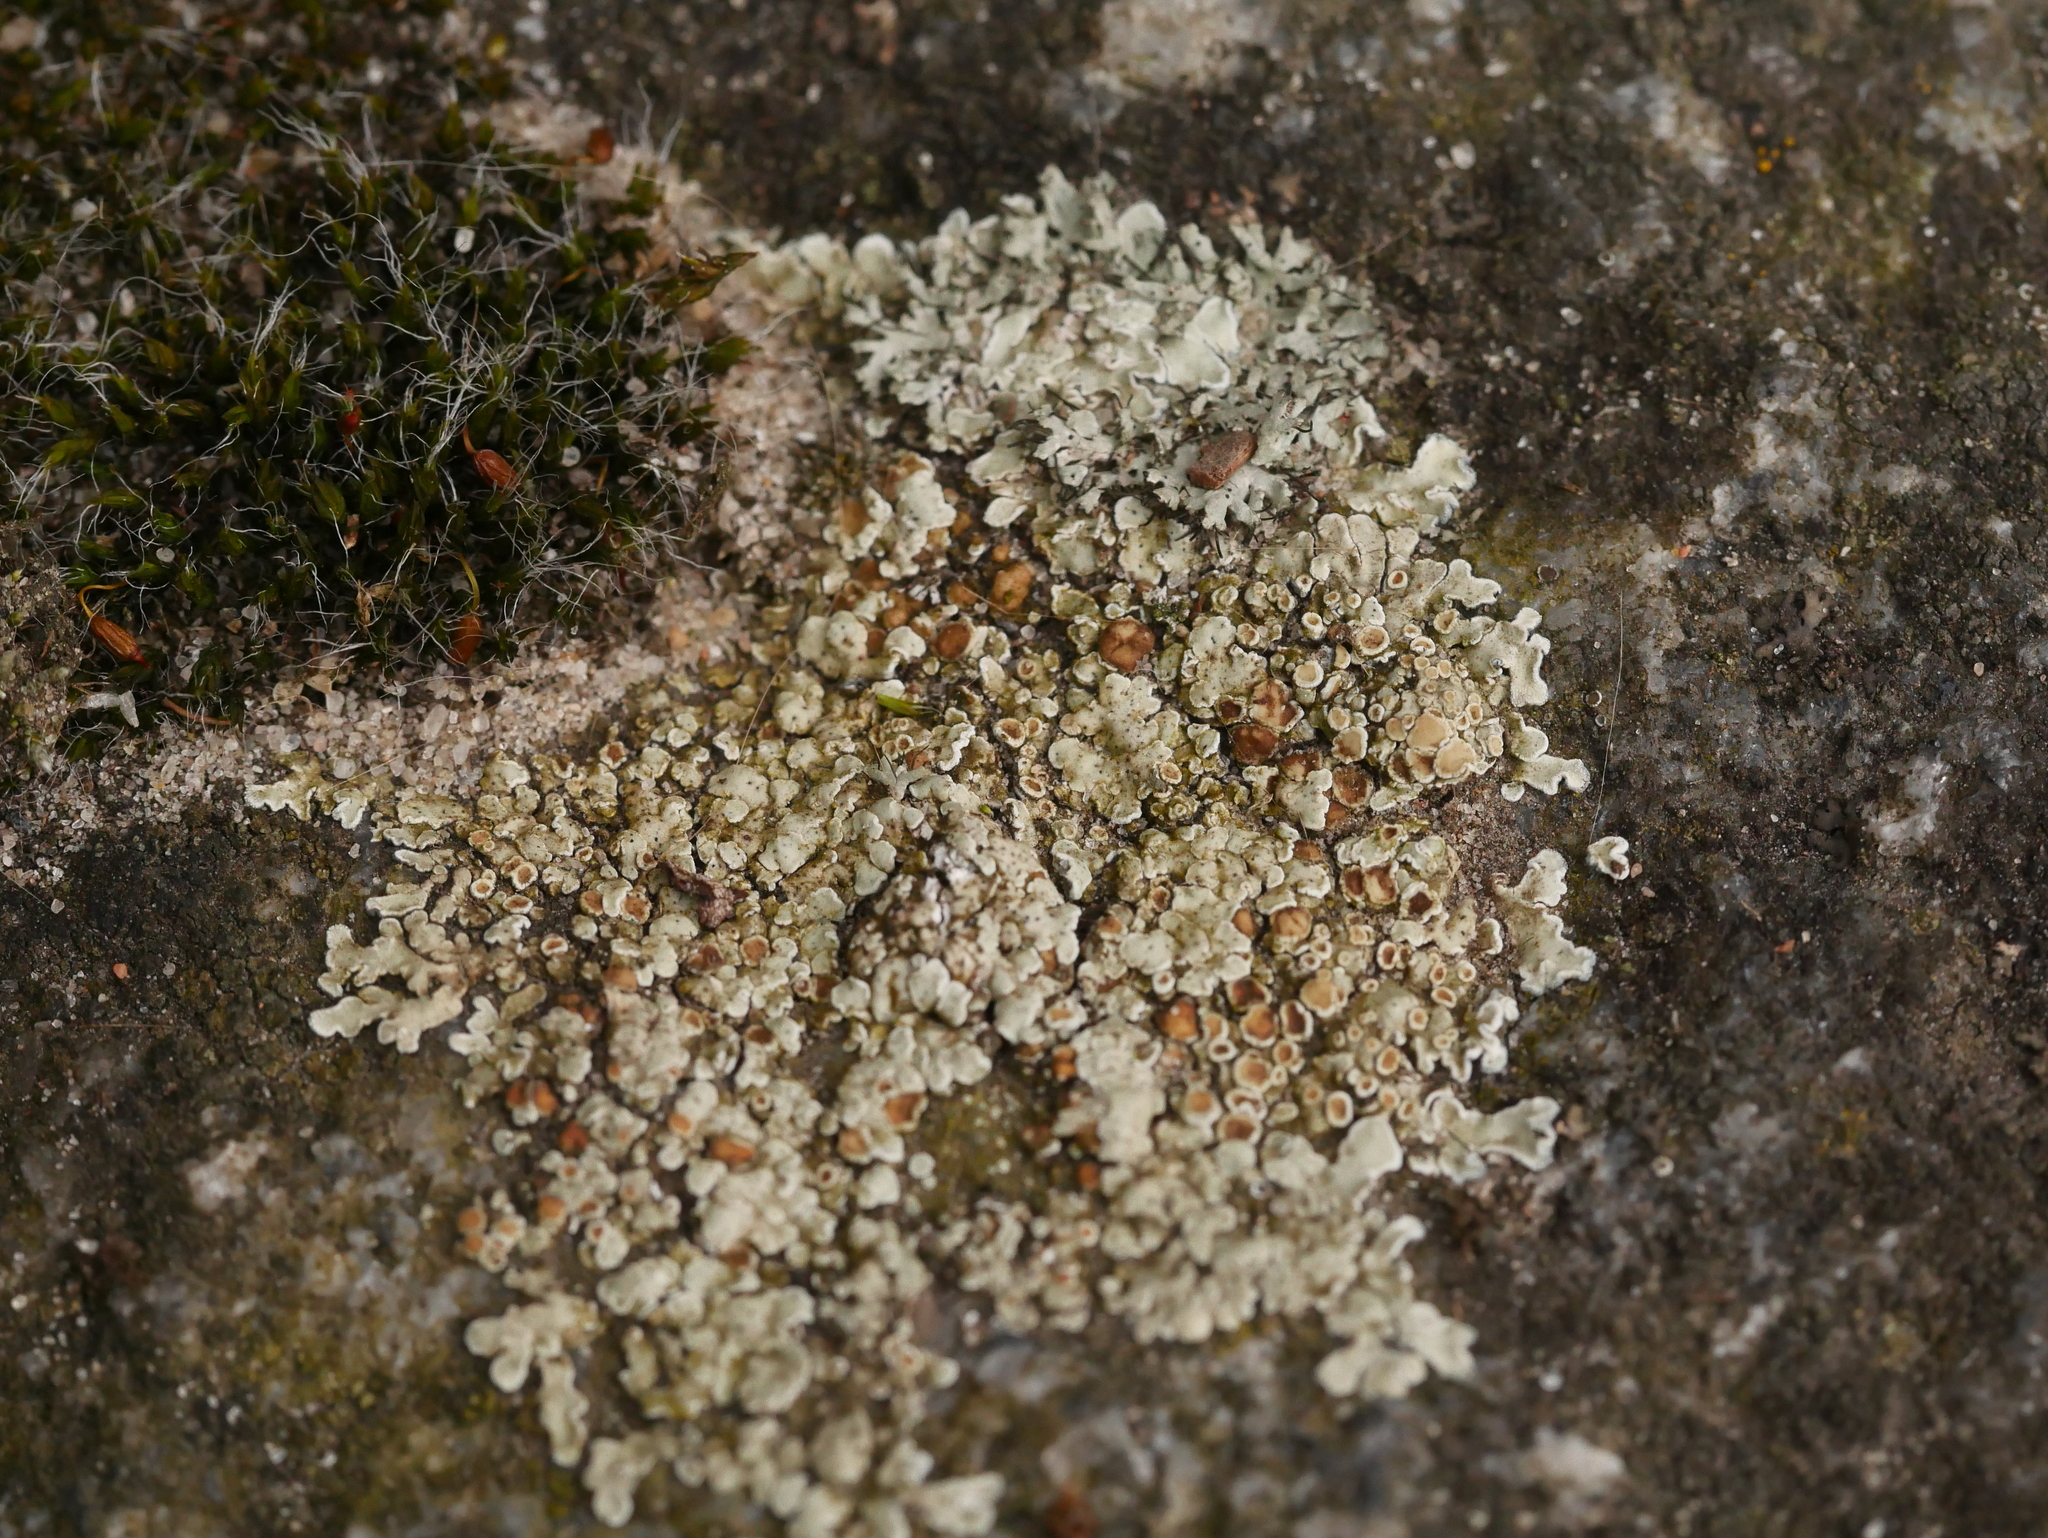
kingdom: Fungi
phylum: Ascomycota
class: Lecanoromycetes
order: Lecanorales
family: Lecanoraceae
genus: Protoparmeliopsis
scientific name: Protoparmeliopsis muralis
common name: Stonewall rim lichen
